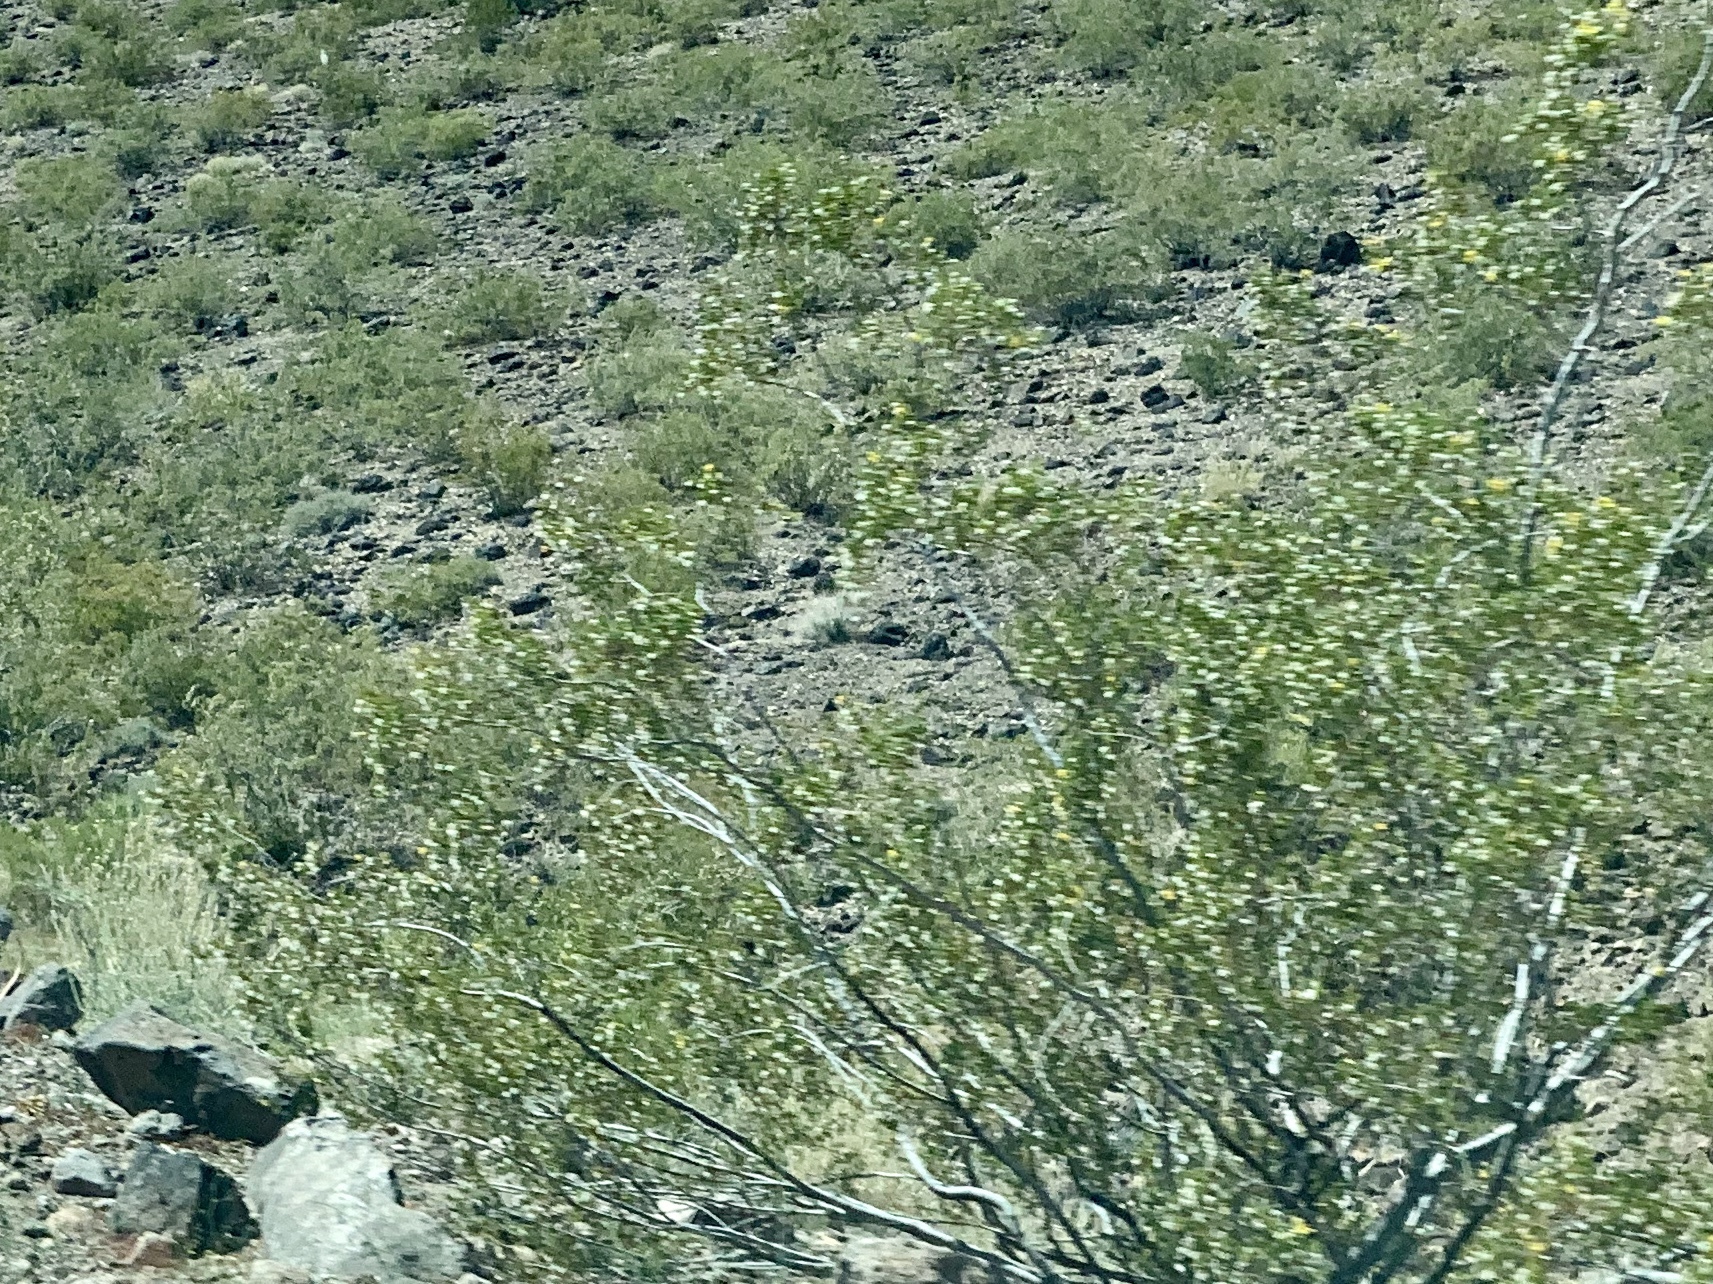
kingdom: Plantae
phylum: Tracheophyta
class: Magnoliopsida
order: Zygophyllales
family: Zygophyllaceae
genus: Larrea
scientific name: Larrea tridentata
